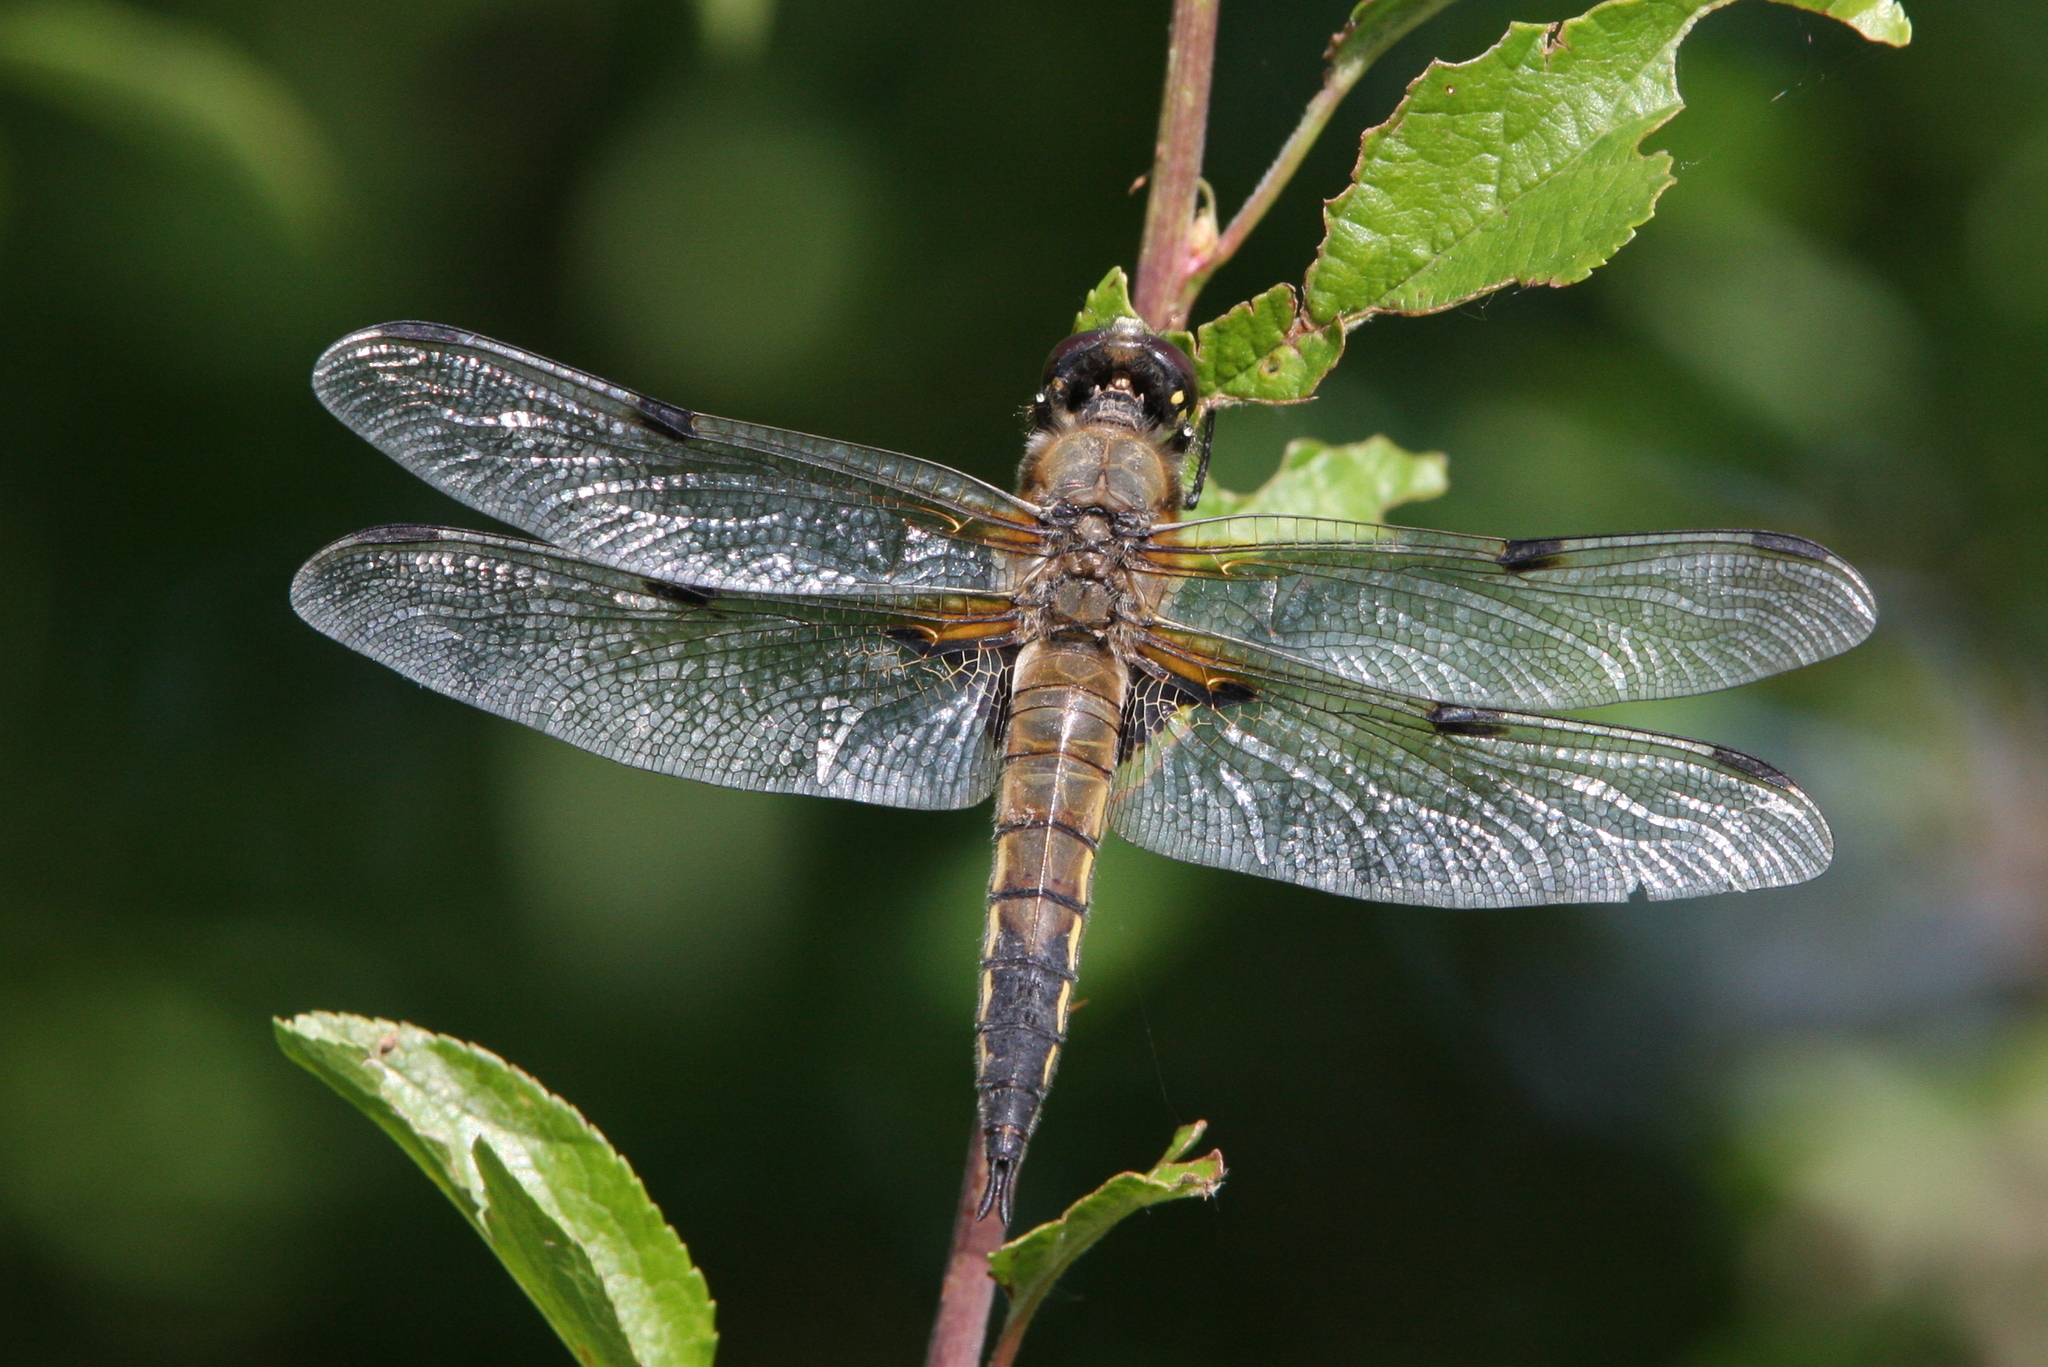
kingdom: Animalia
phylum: Arthropoda
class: Insecta
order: Odonata
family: Libellulidae
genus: Libellula
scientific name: Libellula quadrimaculata
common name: Four-spotted chaser
